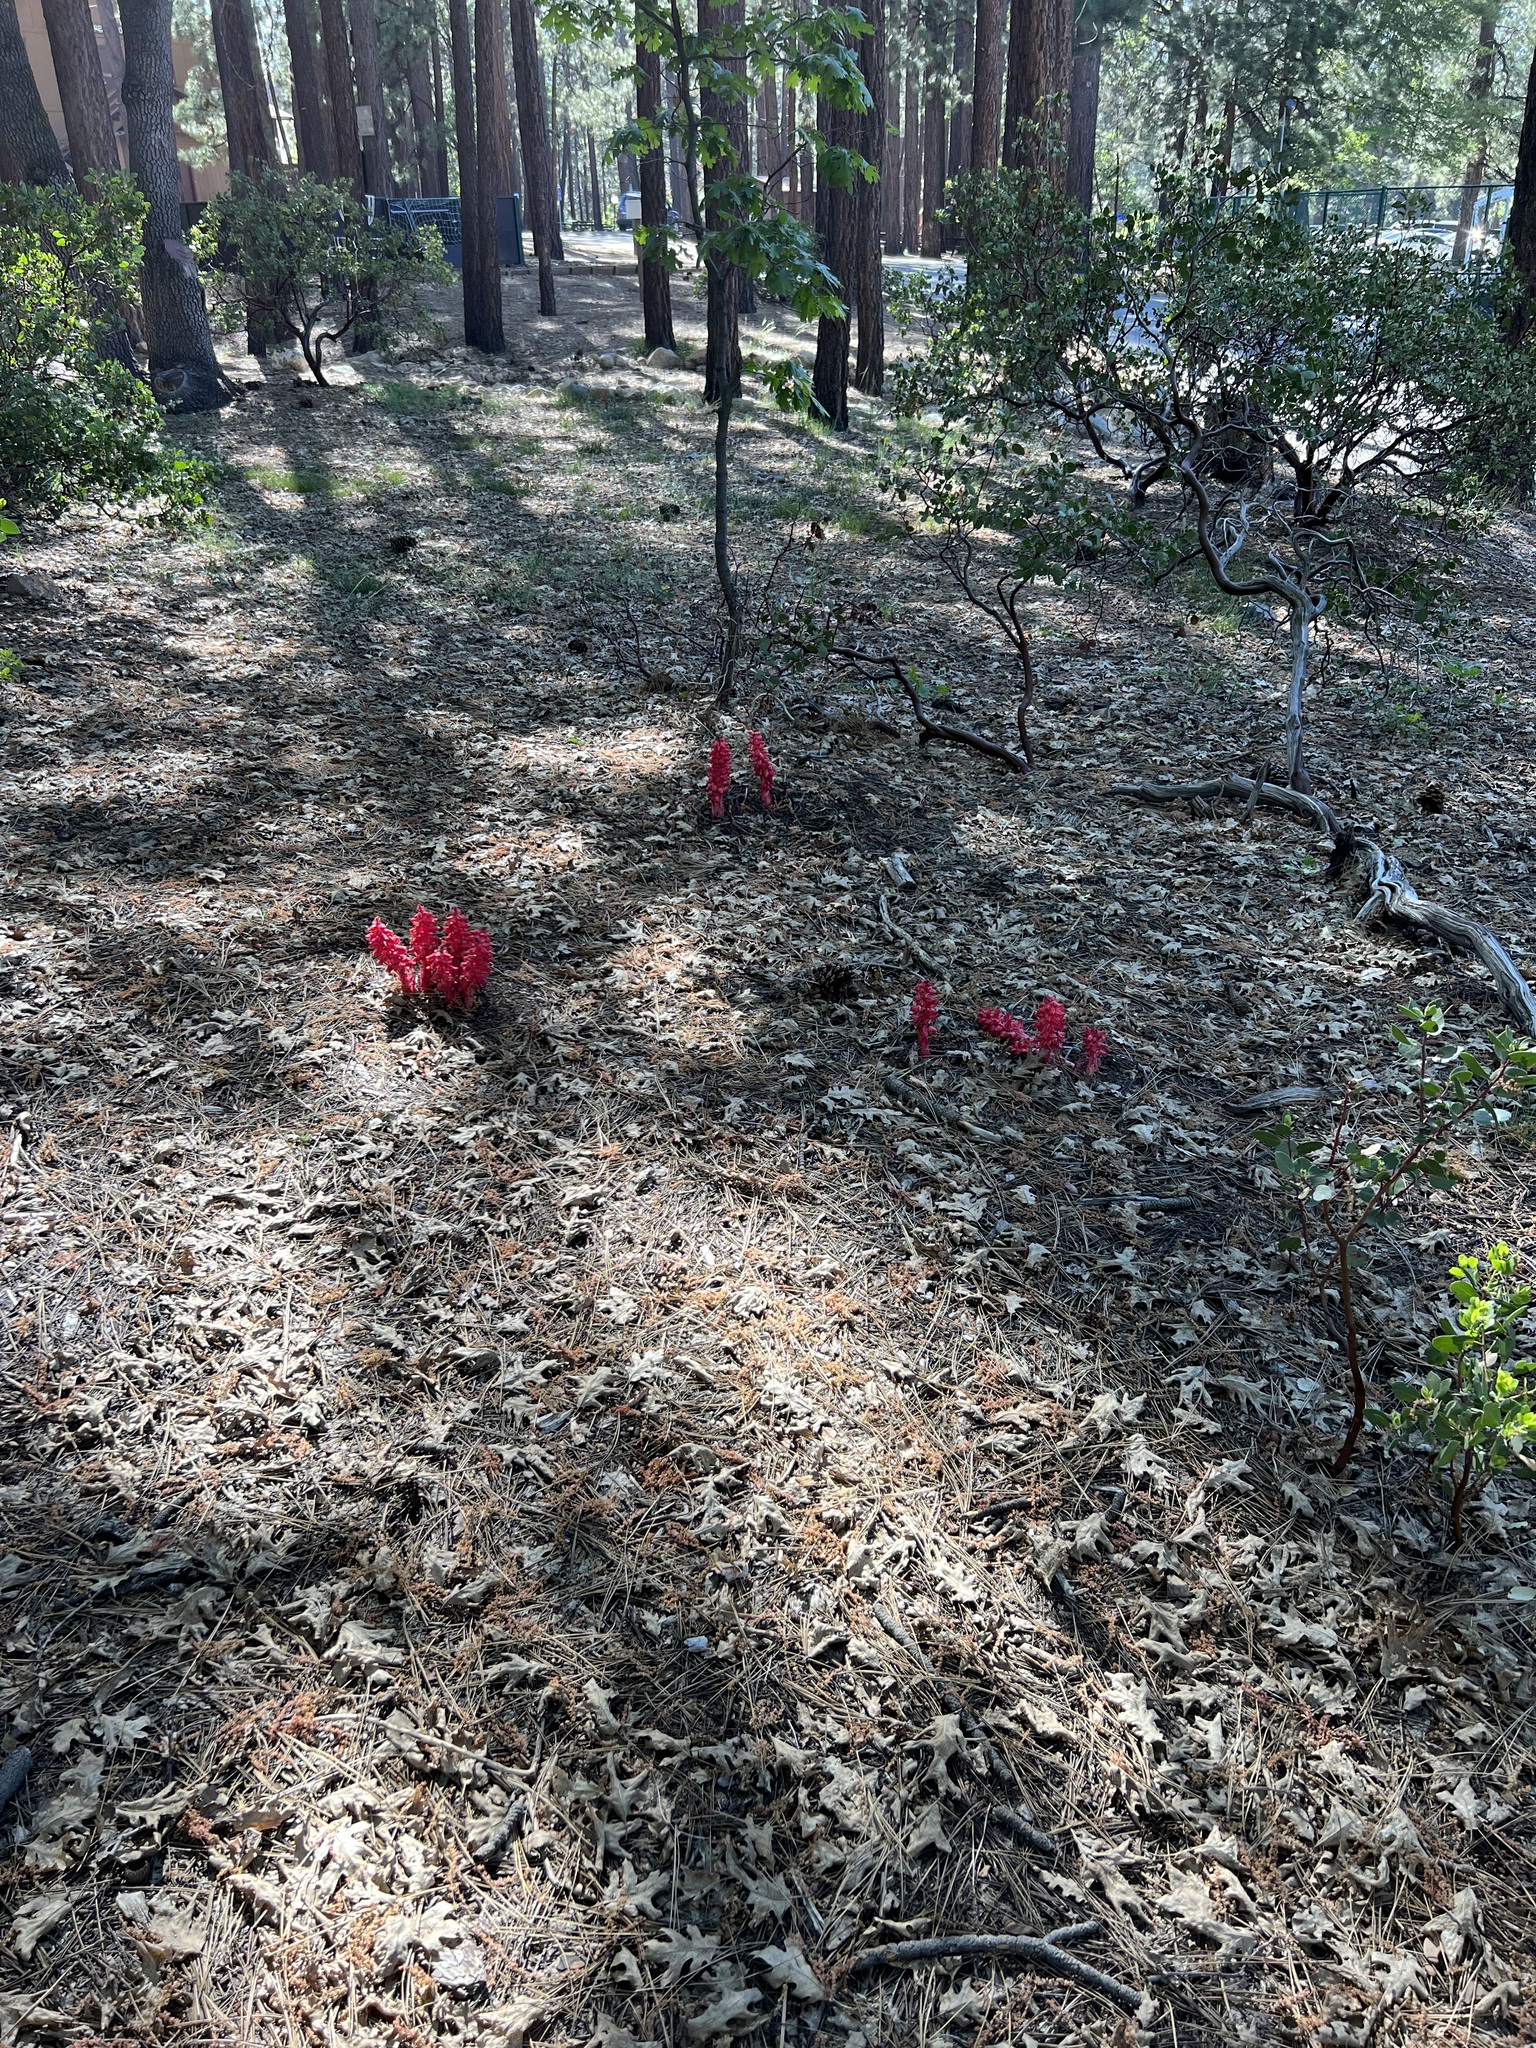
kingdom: Plantae
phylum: Tracheophyta
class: Magnoliopsida
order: Ericales
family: Ericaceae
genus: Sarcodes
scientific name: Sarcodes sanguinea
